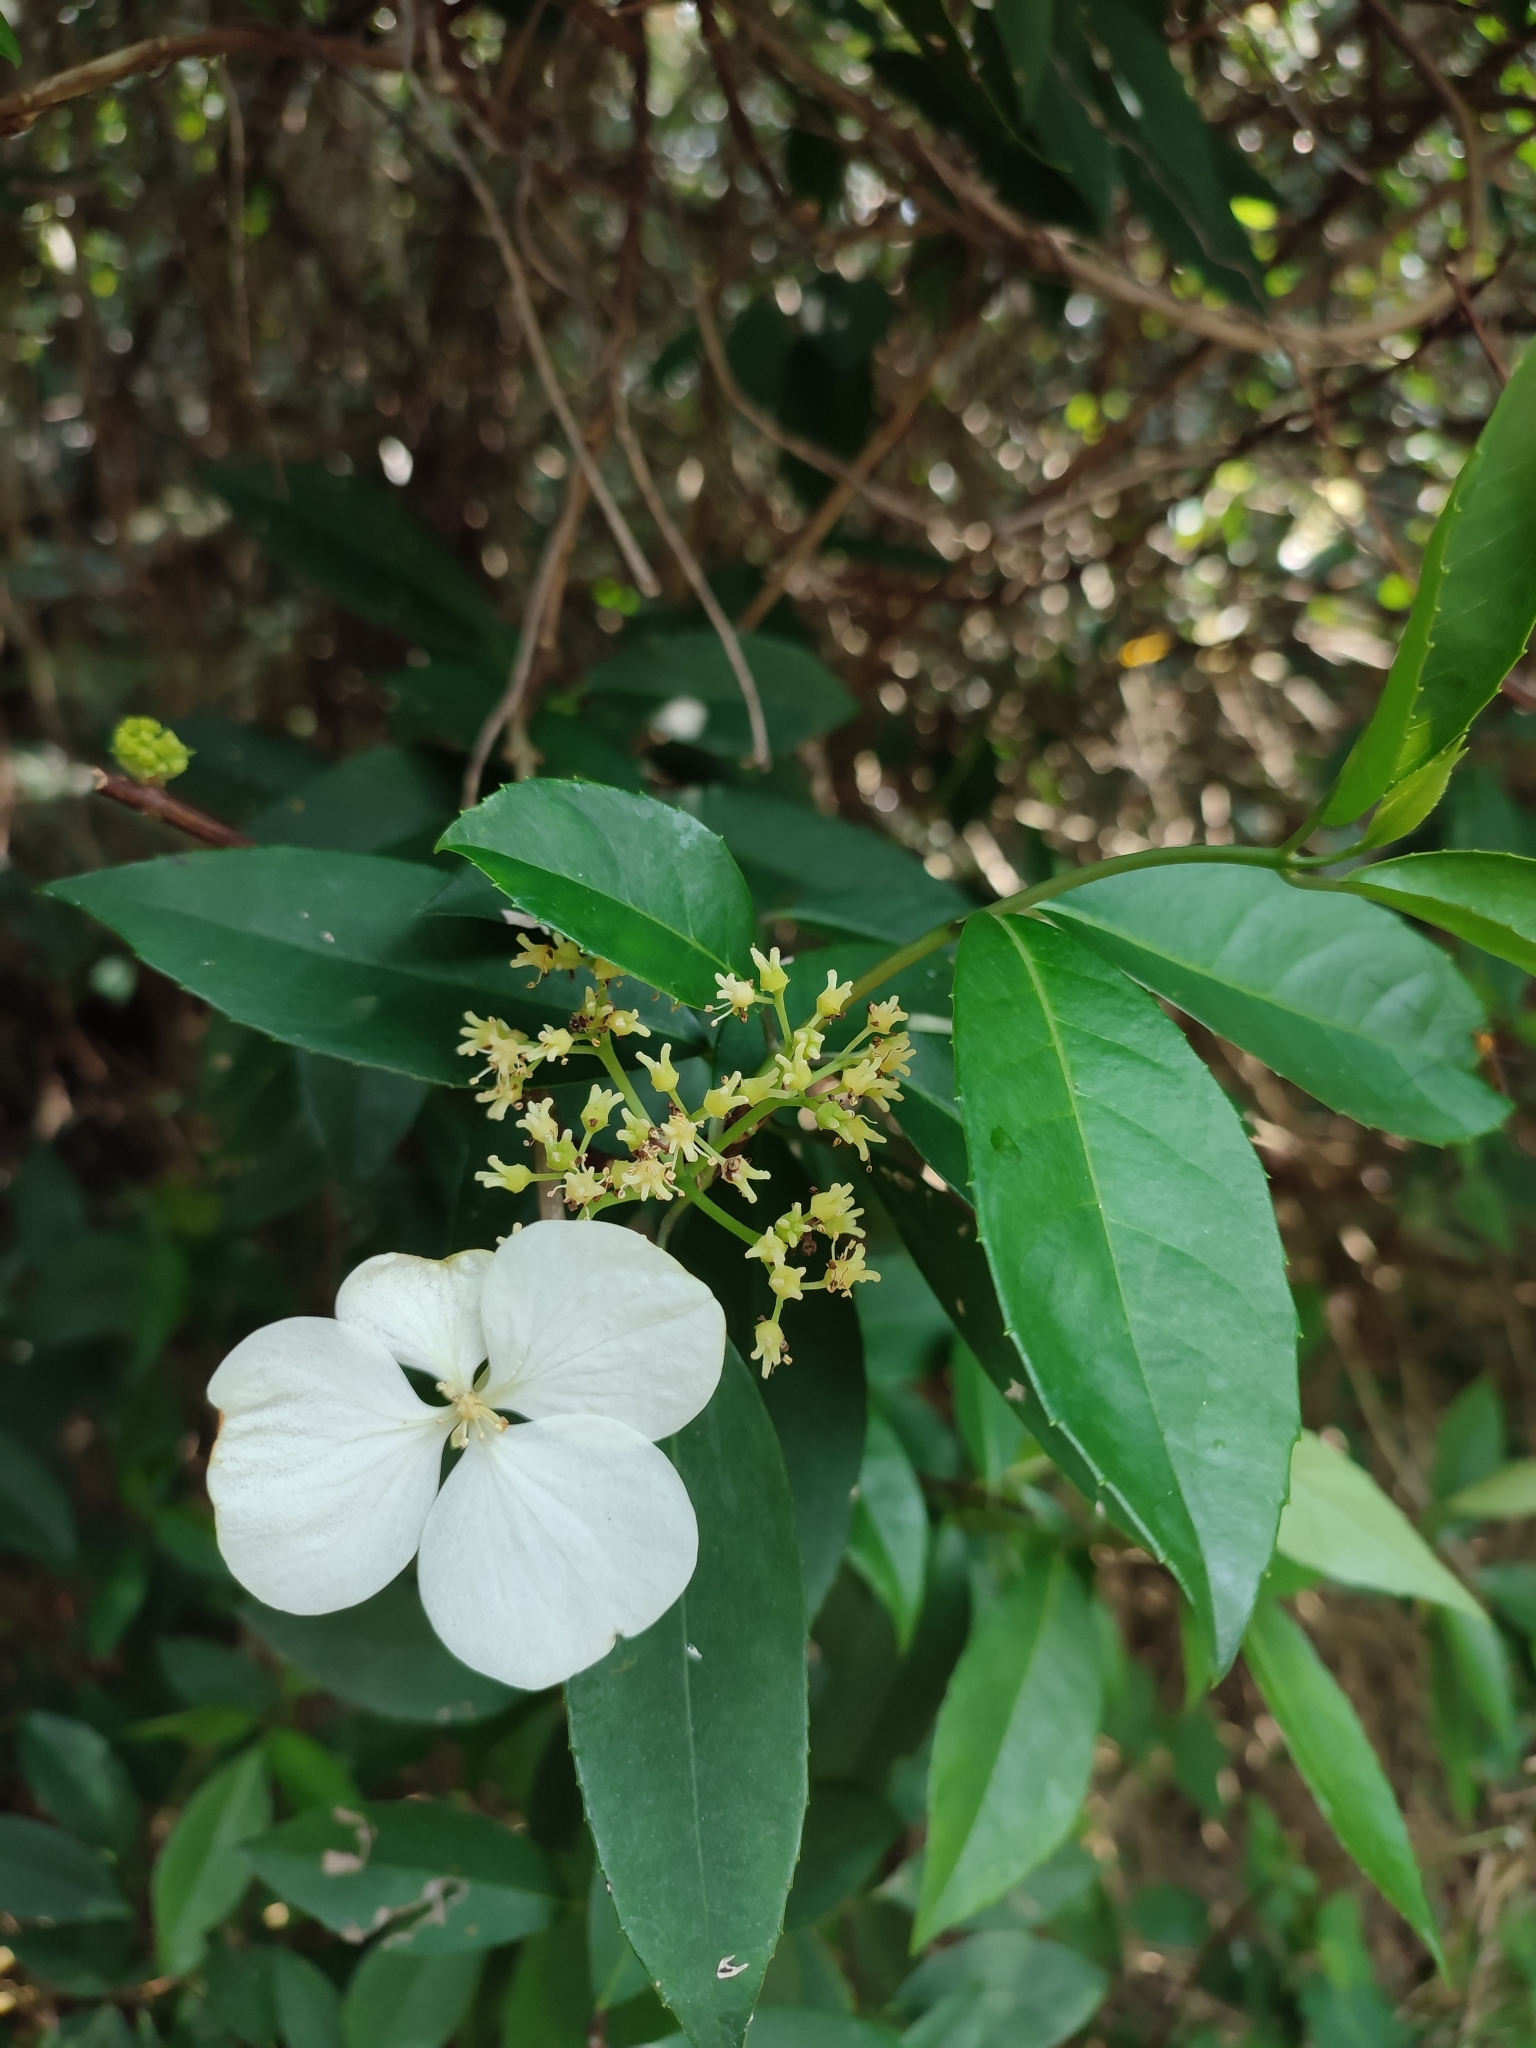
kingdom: Plantae
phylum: Tracheophyta
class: Magnoliopsida
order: Cornales
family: Hydrangeaceae
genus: Hydrangea
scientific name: Hydrangea chinensis
